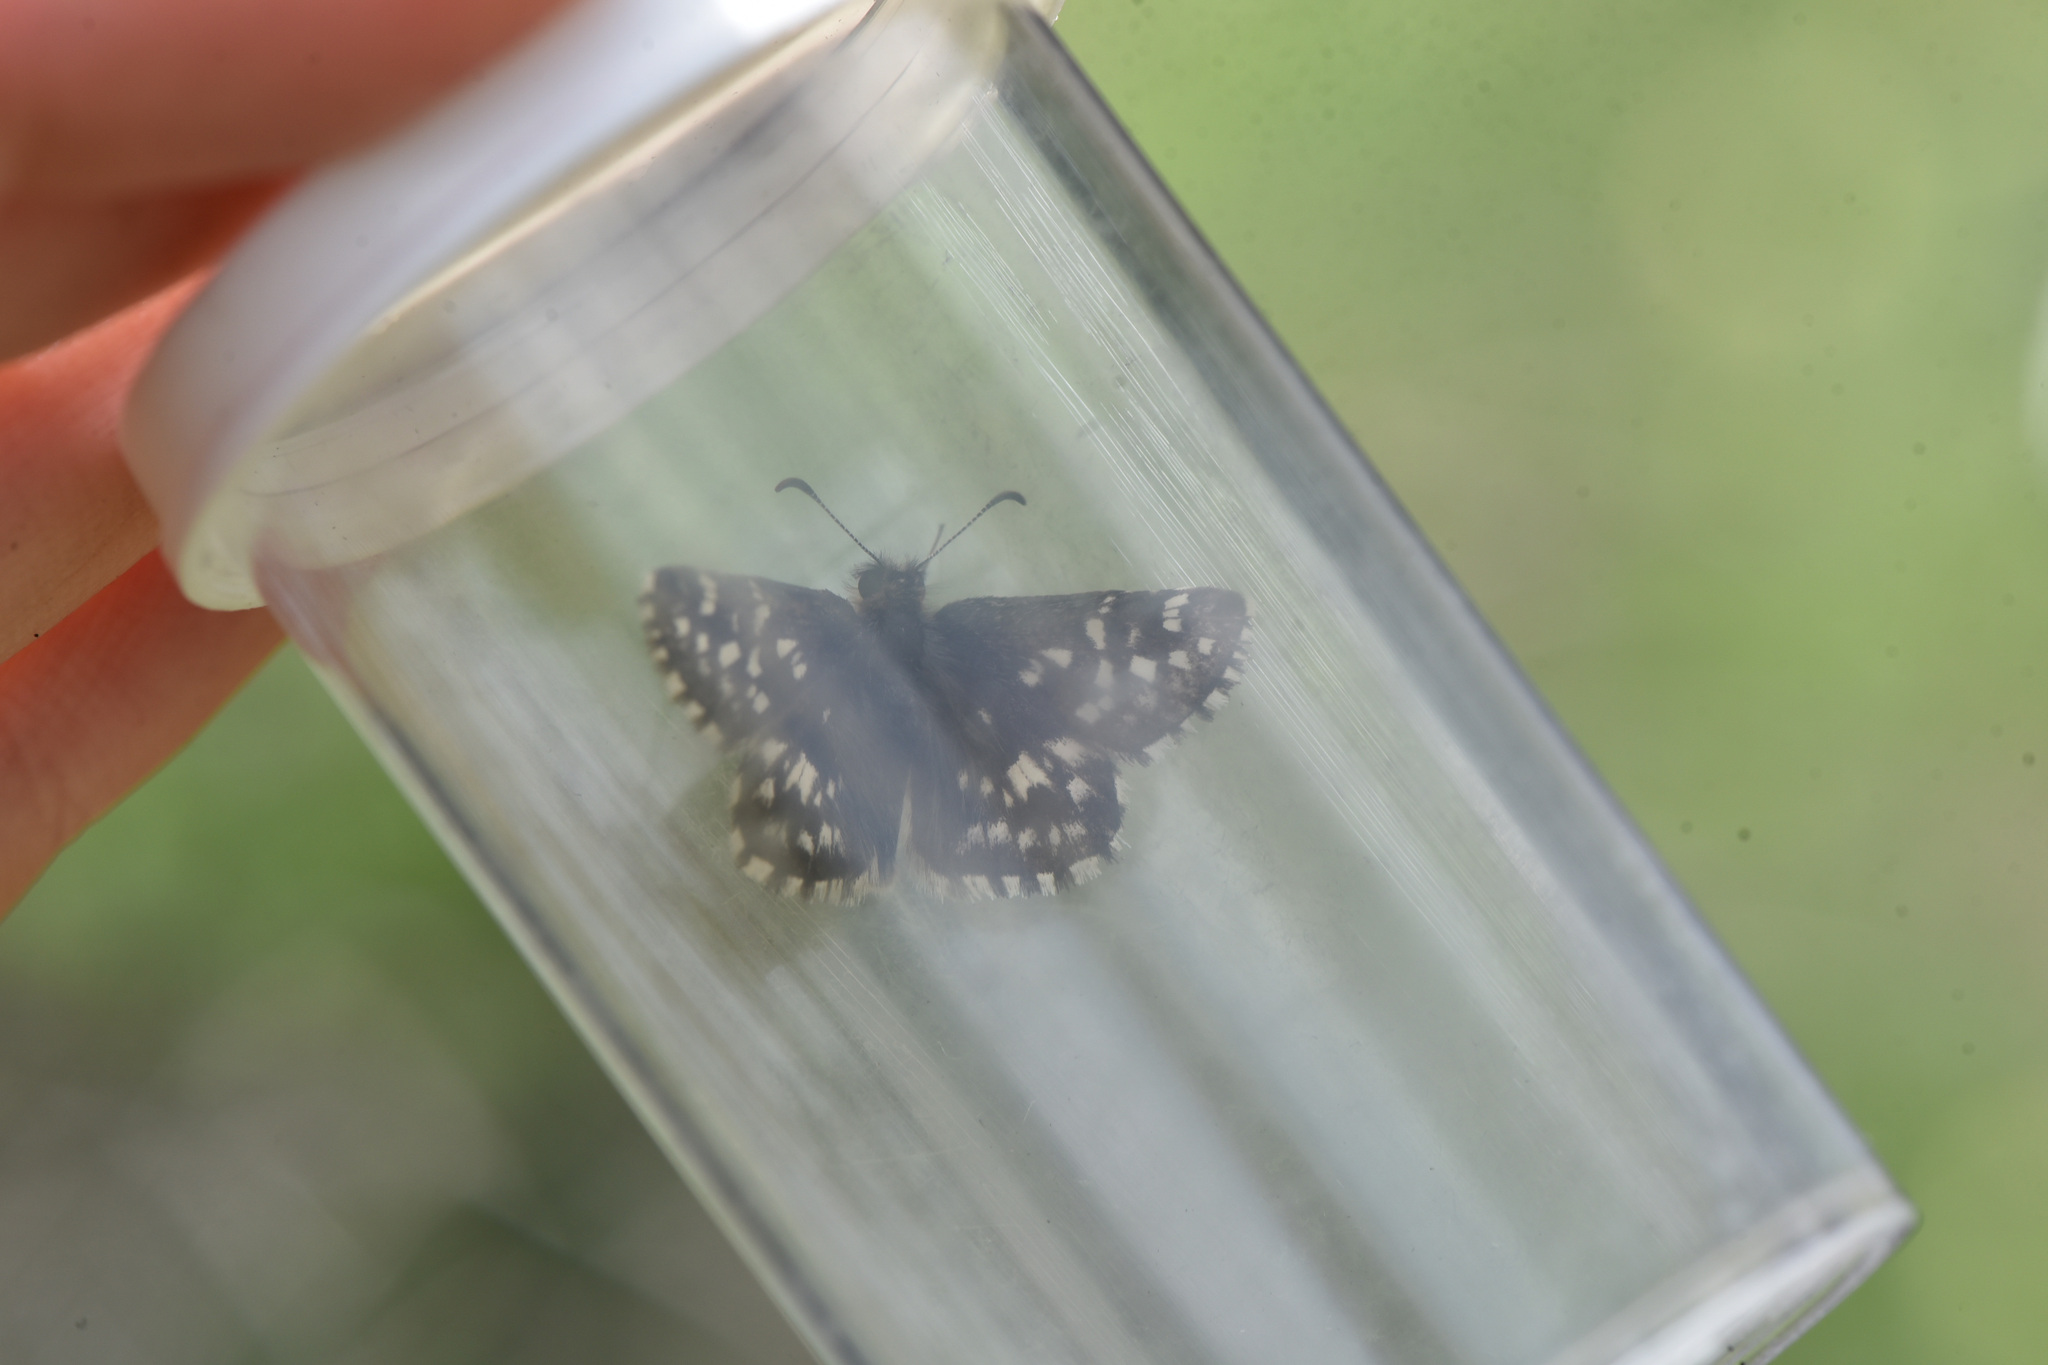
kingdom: Animalia
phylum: Arthropoda
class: Insecta
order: Lepidoptera
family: Hesperiidae
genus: Pyrgus
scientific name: Pyrgus ruralis
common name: Two-banded checkered-skipper
